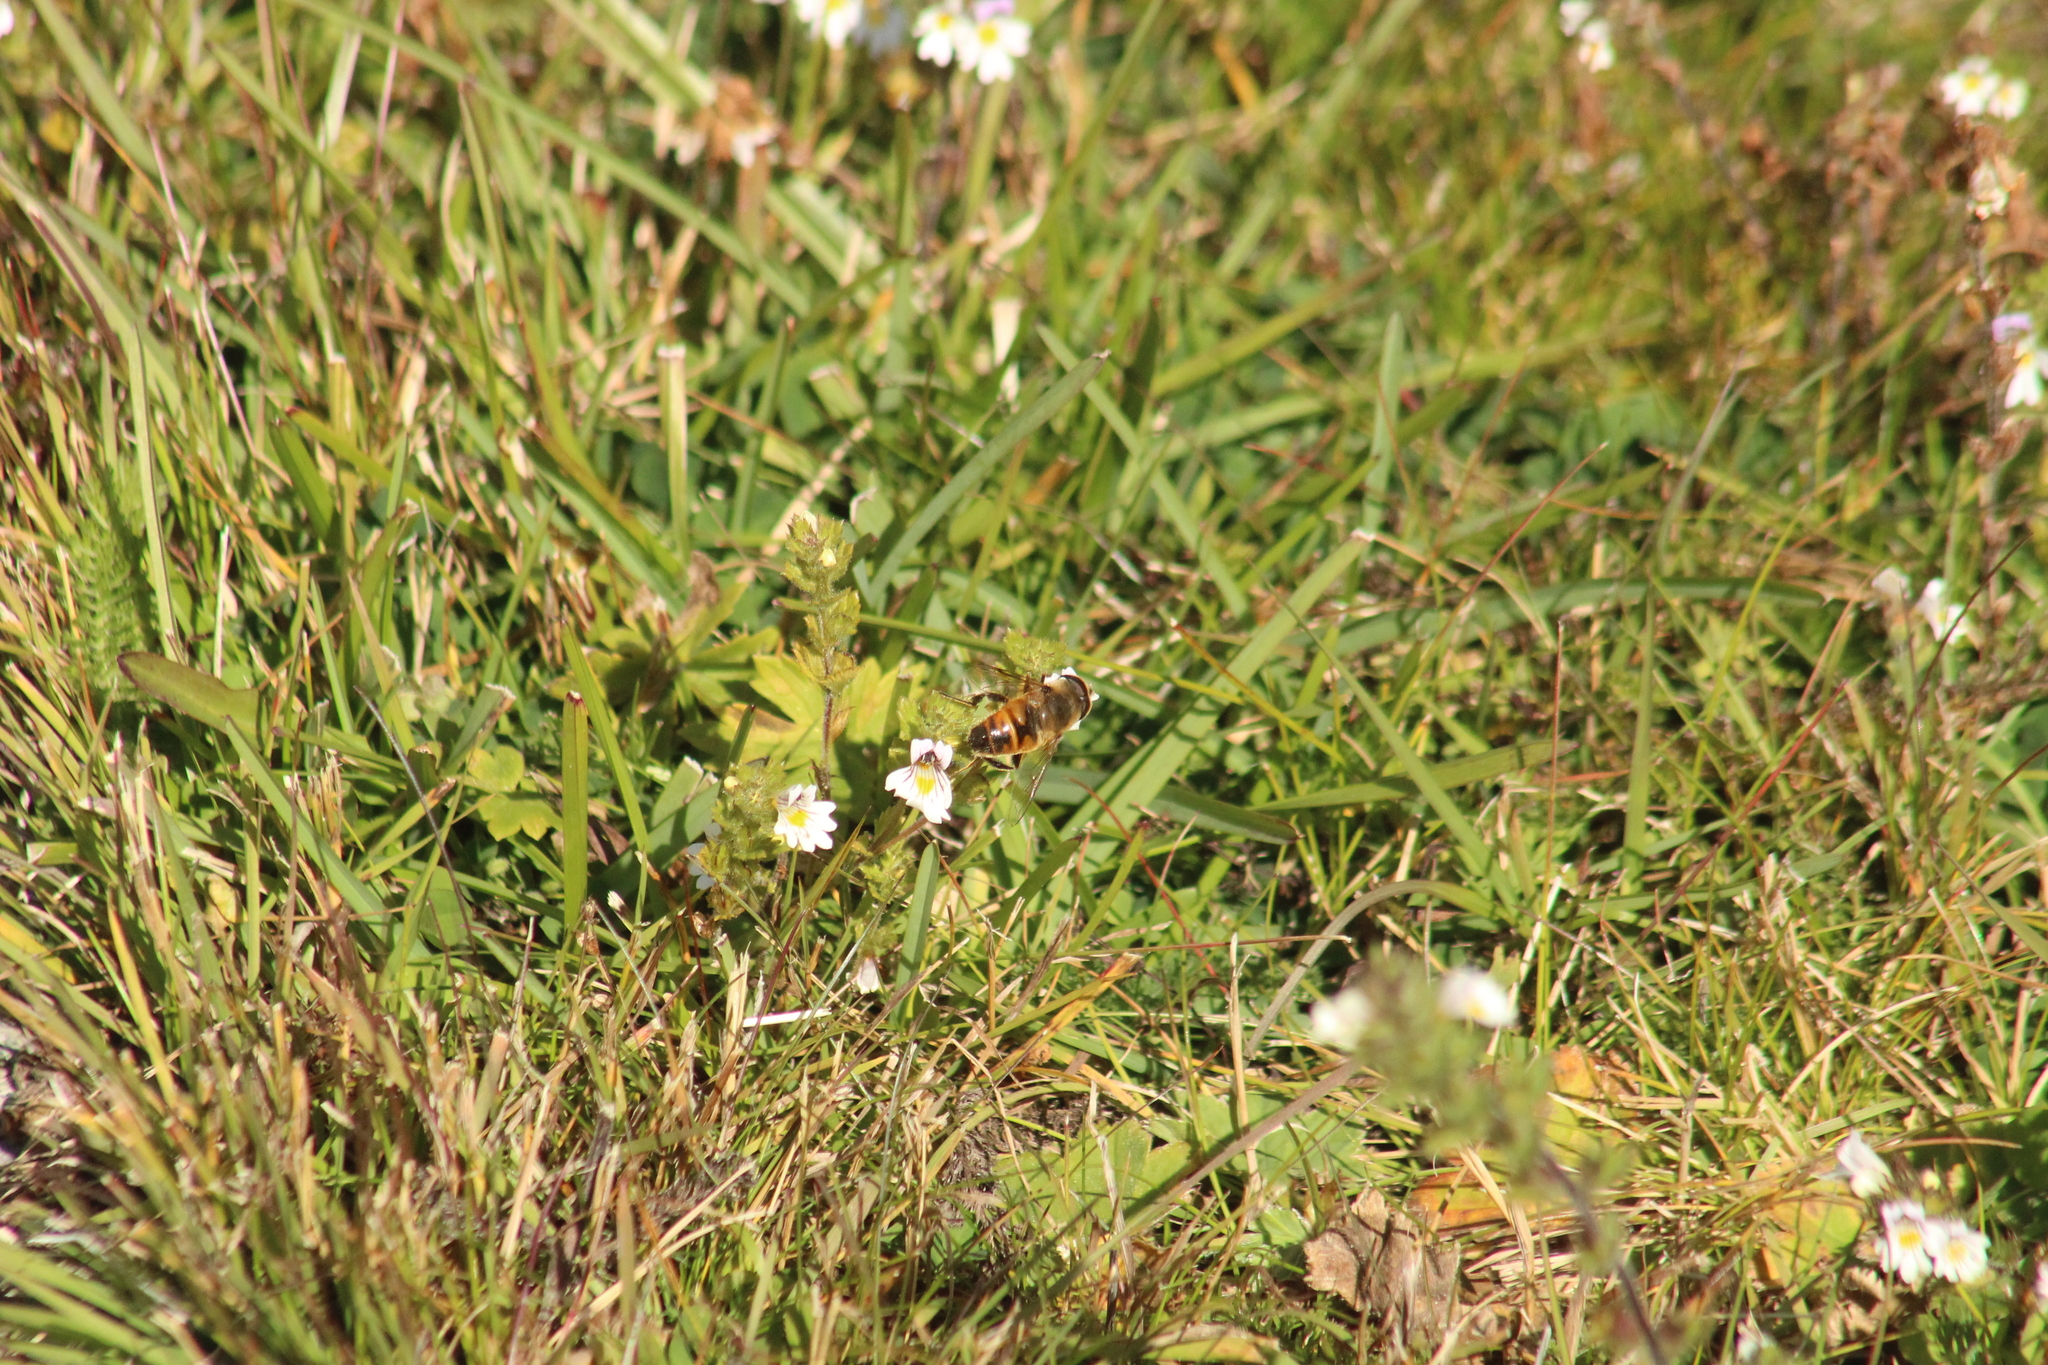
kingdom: Animalia
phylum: Arthropoda
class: Insecta
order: Diptera
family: Syrphidae
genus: Eristalis
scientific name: Eristalis tenax
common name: Drone fly
